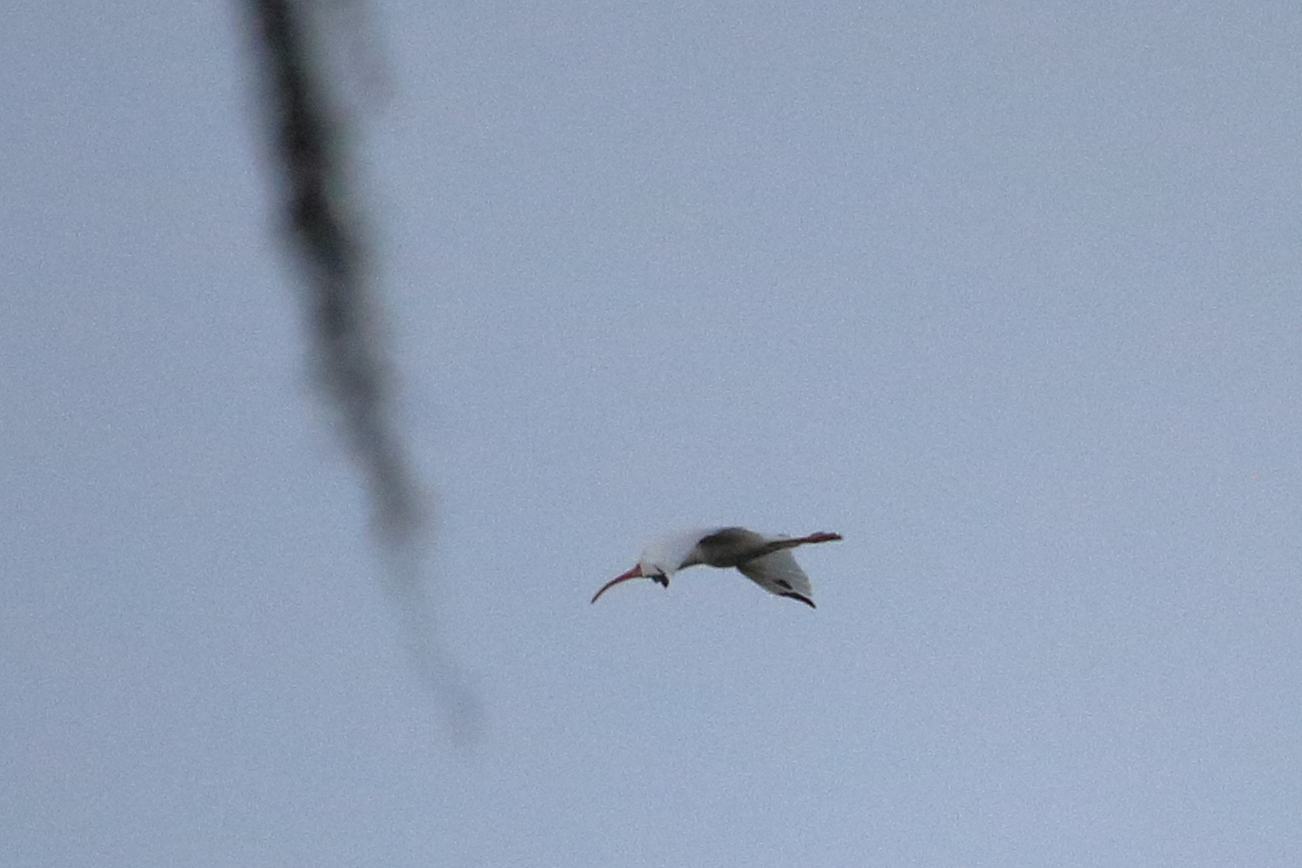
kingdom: Animalia
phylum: Chordata
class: Aves
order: Pelecaniformes
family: Threskiornithidae
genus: Eudocimus
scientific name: Eudocimus albus
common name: White ibis
